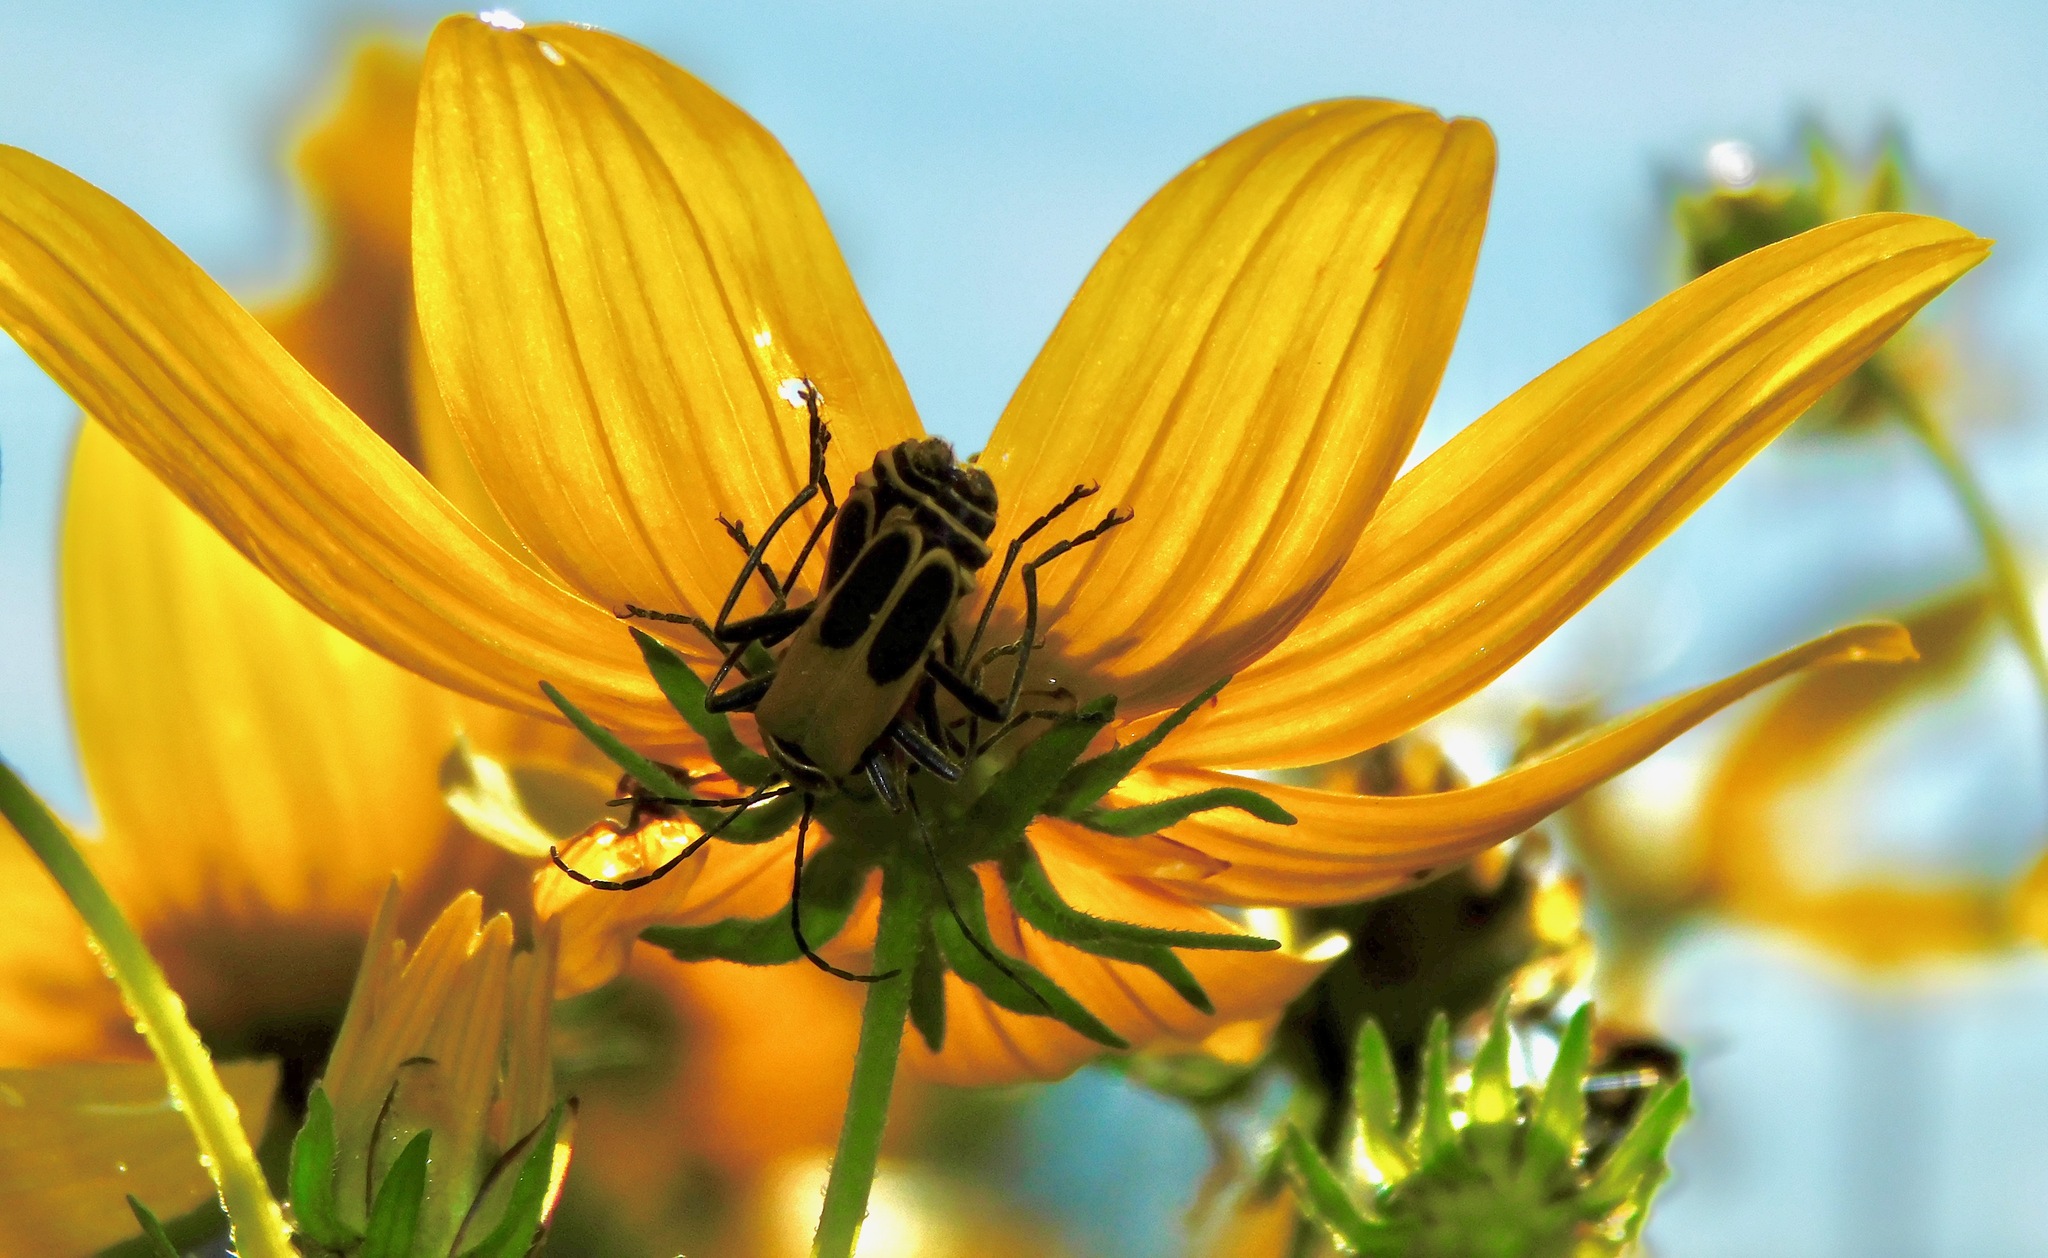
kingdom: Animalia
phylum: Arthropoda
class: Insecta
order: Coleoptera
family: Cantharidae
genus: Chauliognathus
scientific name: Chauliognathus pensylvanicus
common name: Goldenrod soldier beetle
